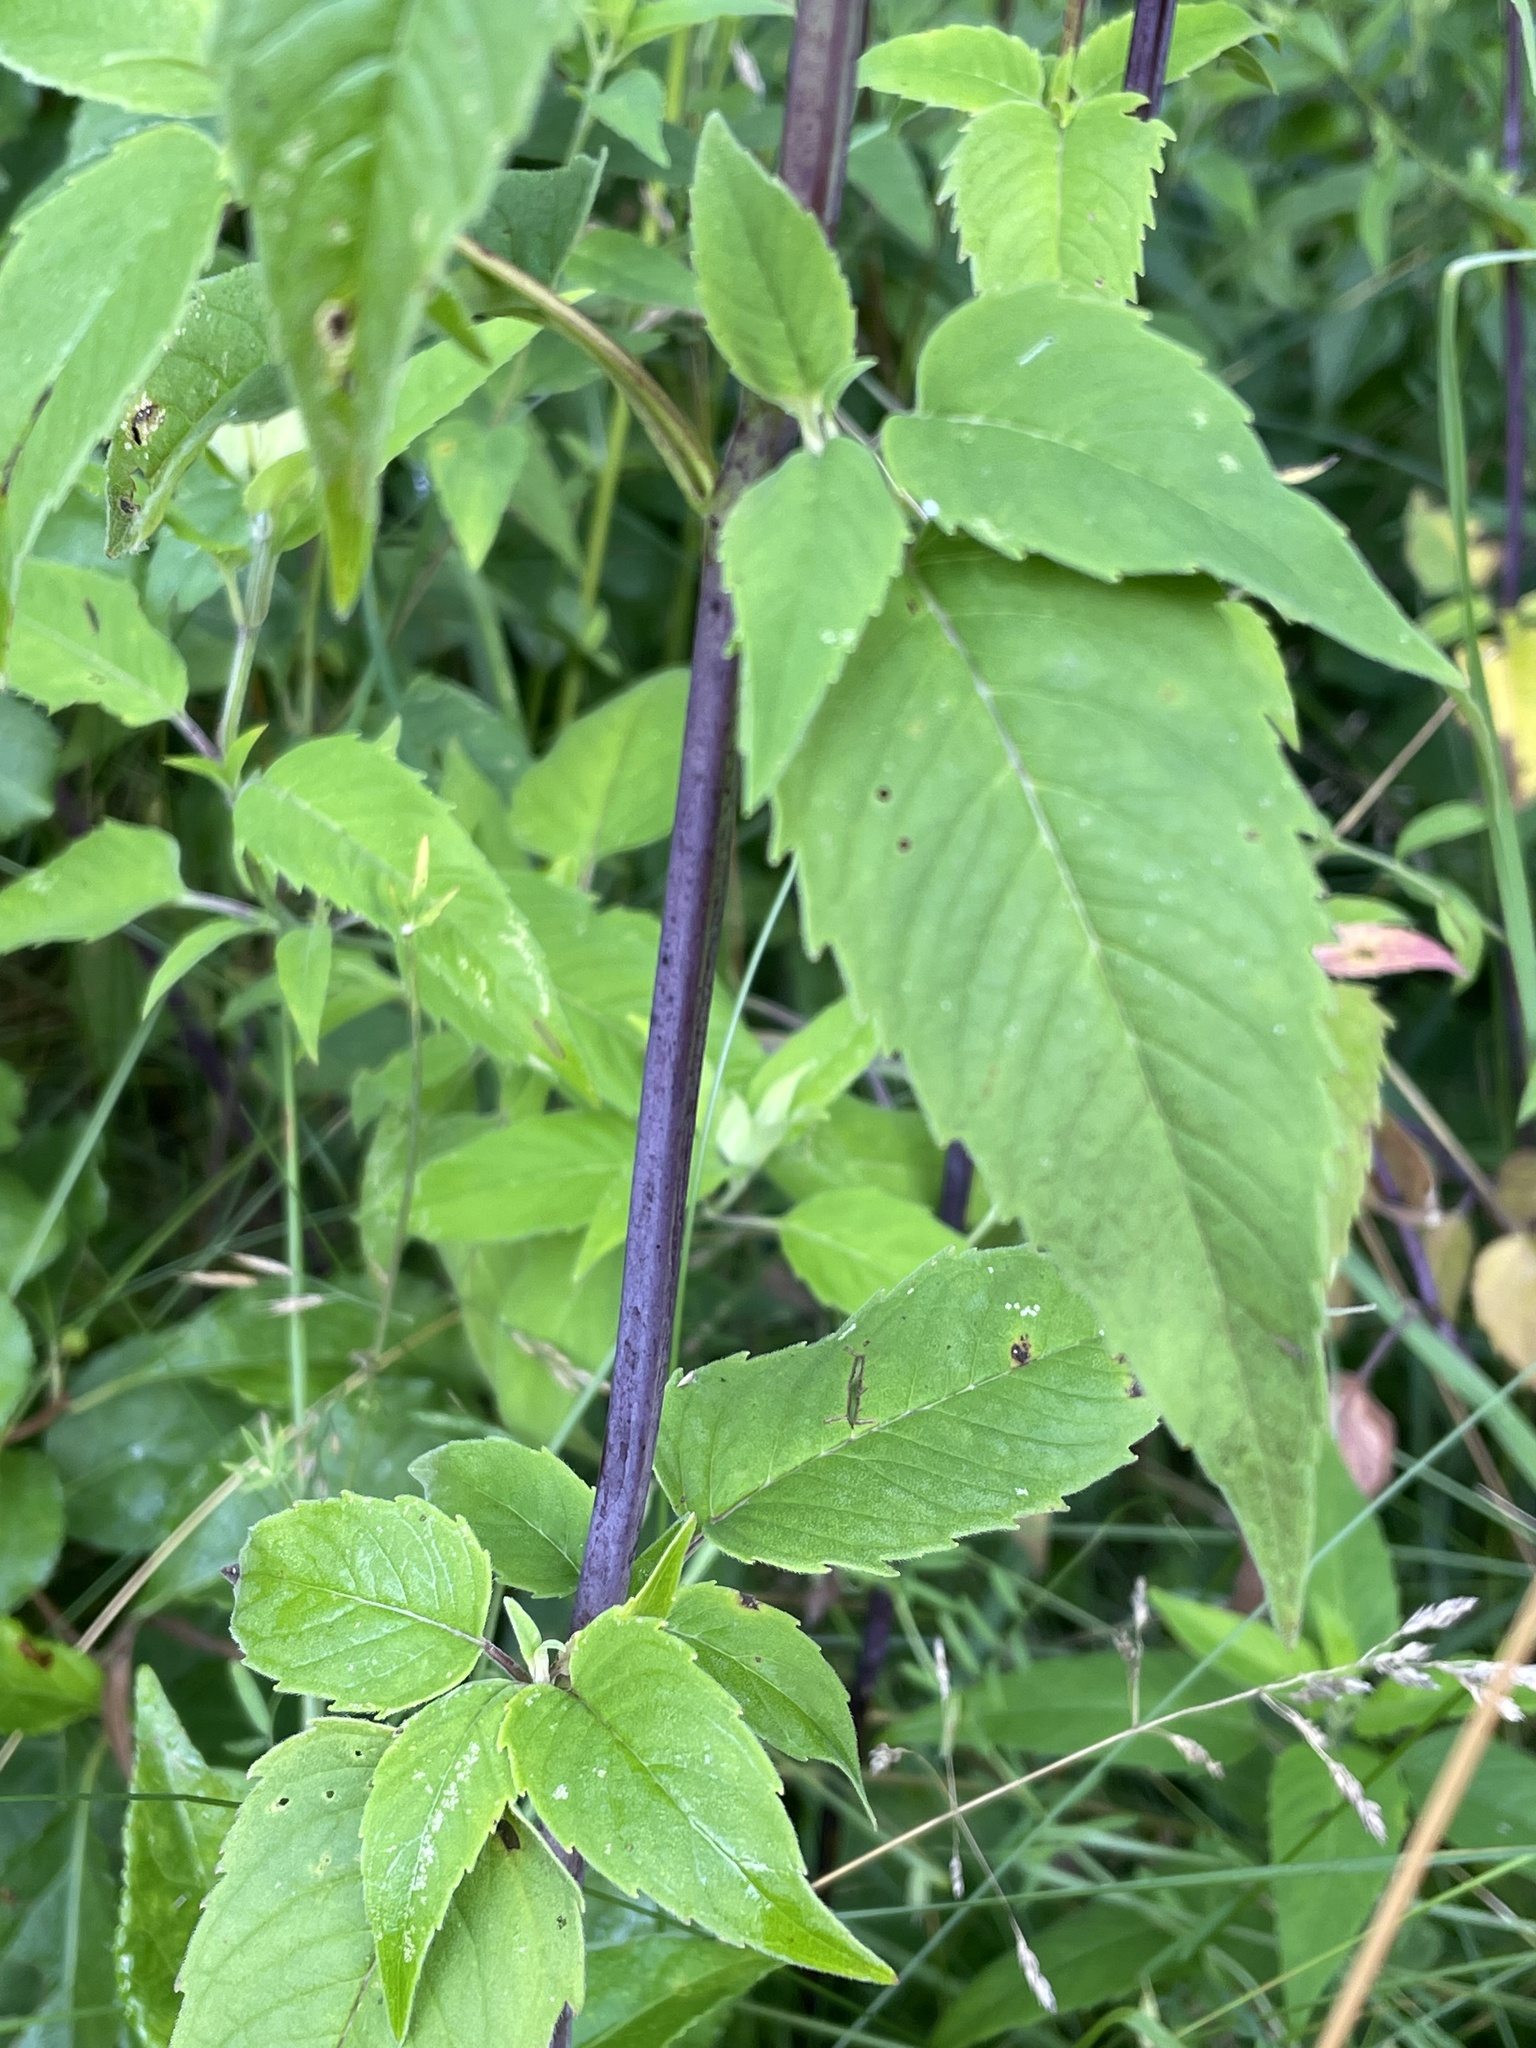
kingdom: Plantae
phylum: Tracheophyta
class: Magnoliopsida
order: Lamiales
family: Lamiaceae
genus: Monarda
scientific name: Monarda fistulosa
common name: Purple beebalm
